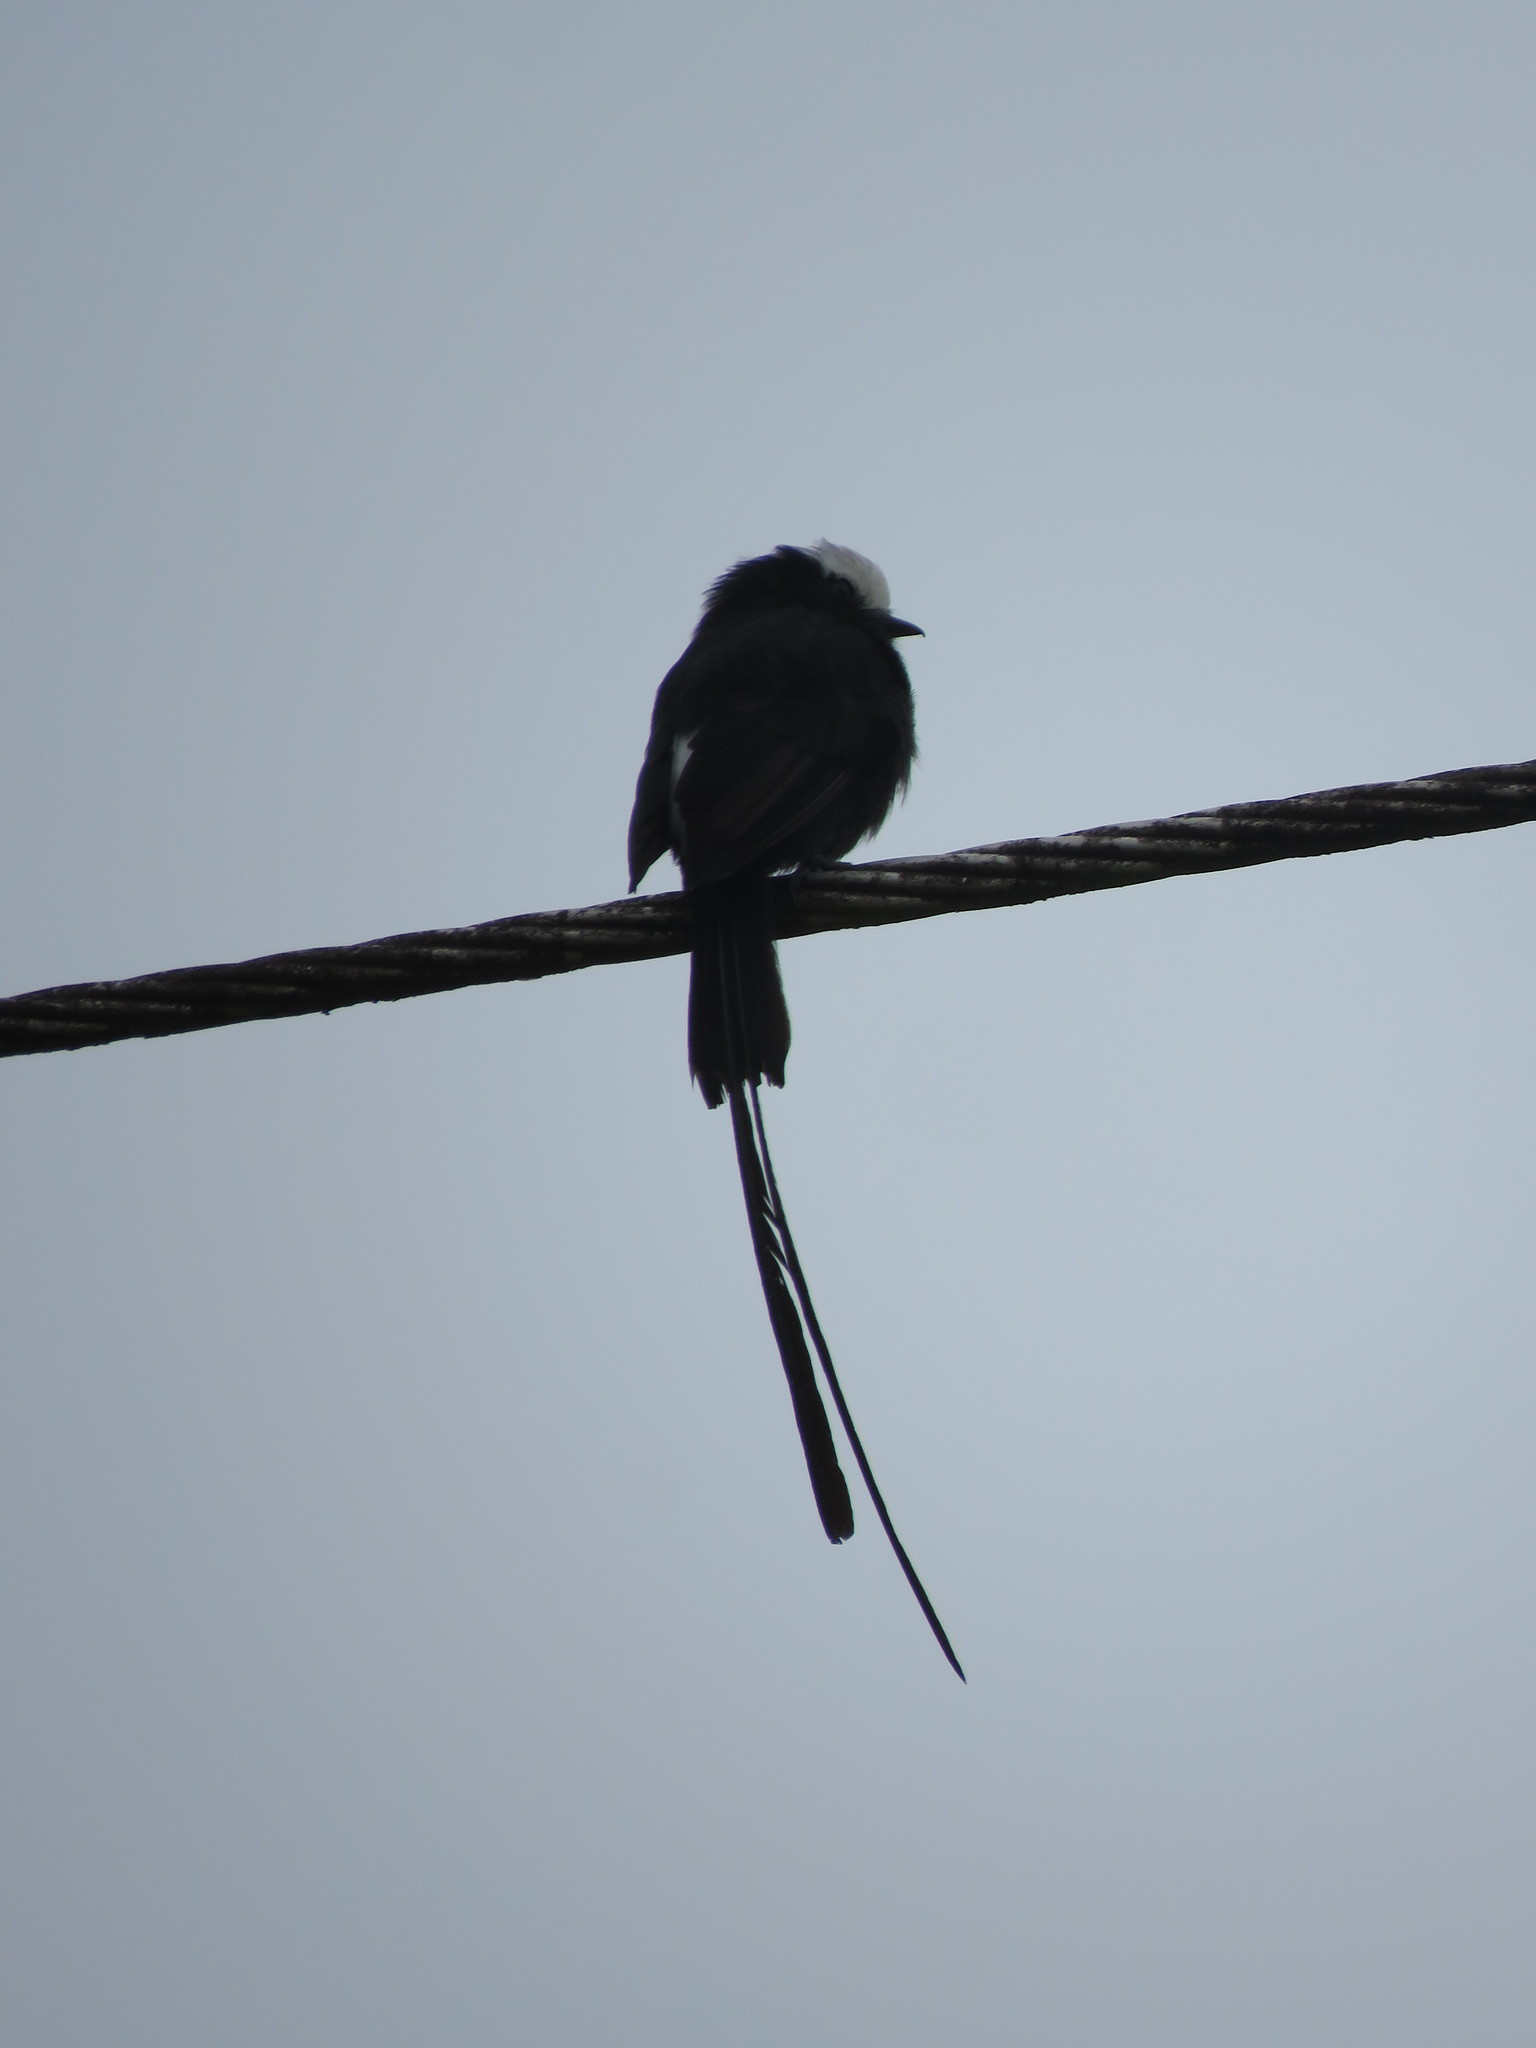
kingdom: Animalia
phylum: Chordata
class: Aves
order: Passeriformes
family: Tyrannidae
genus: Colonia
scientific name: Colonia colonus
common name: Long-tailed tyrant
